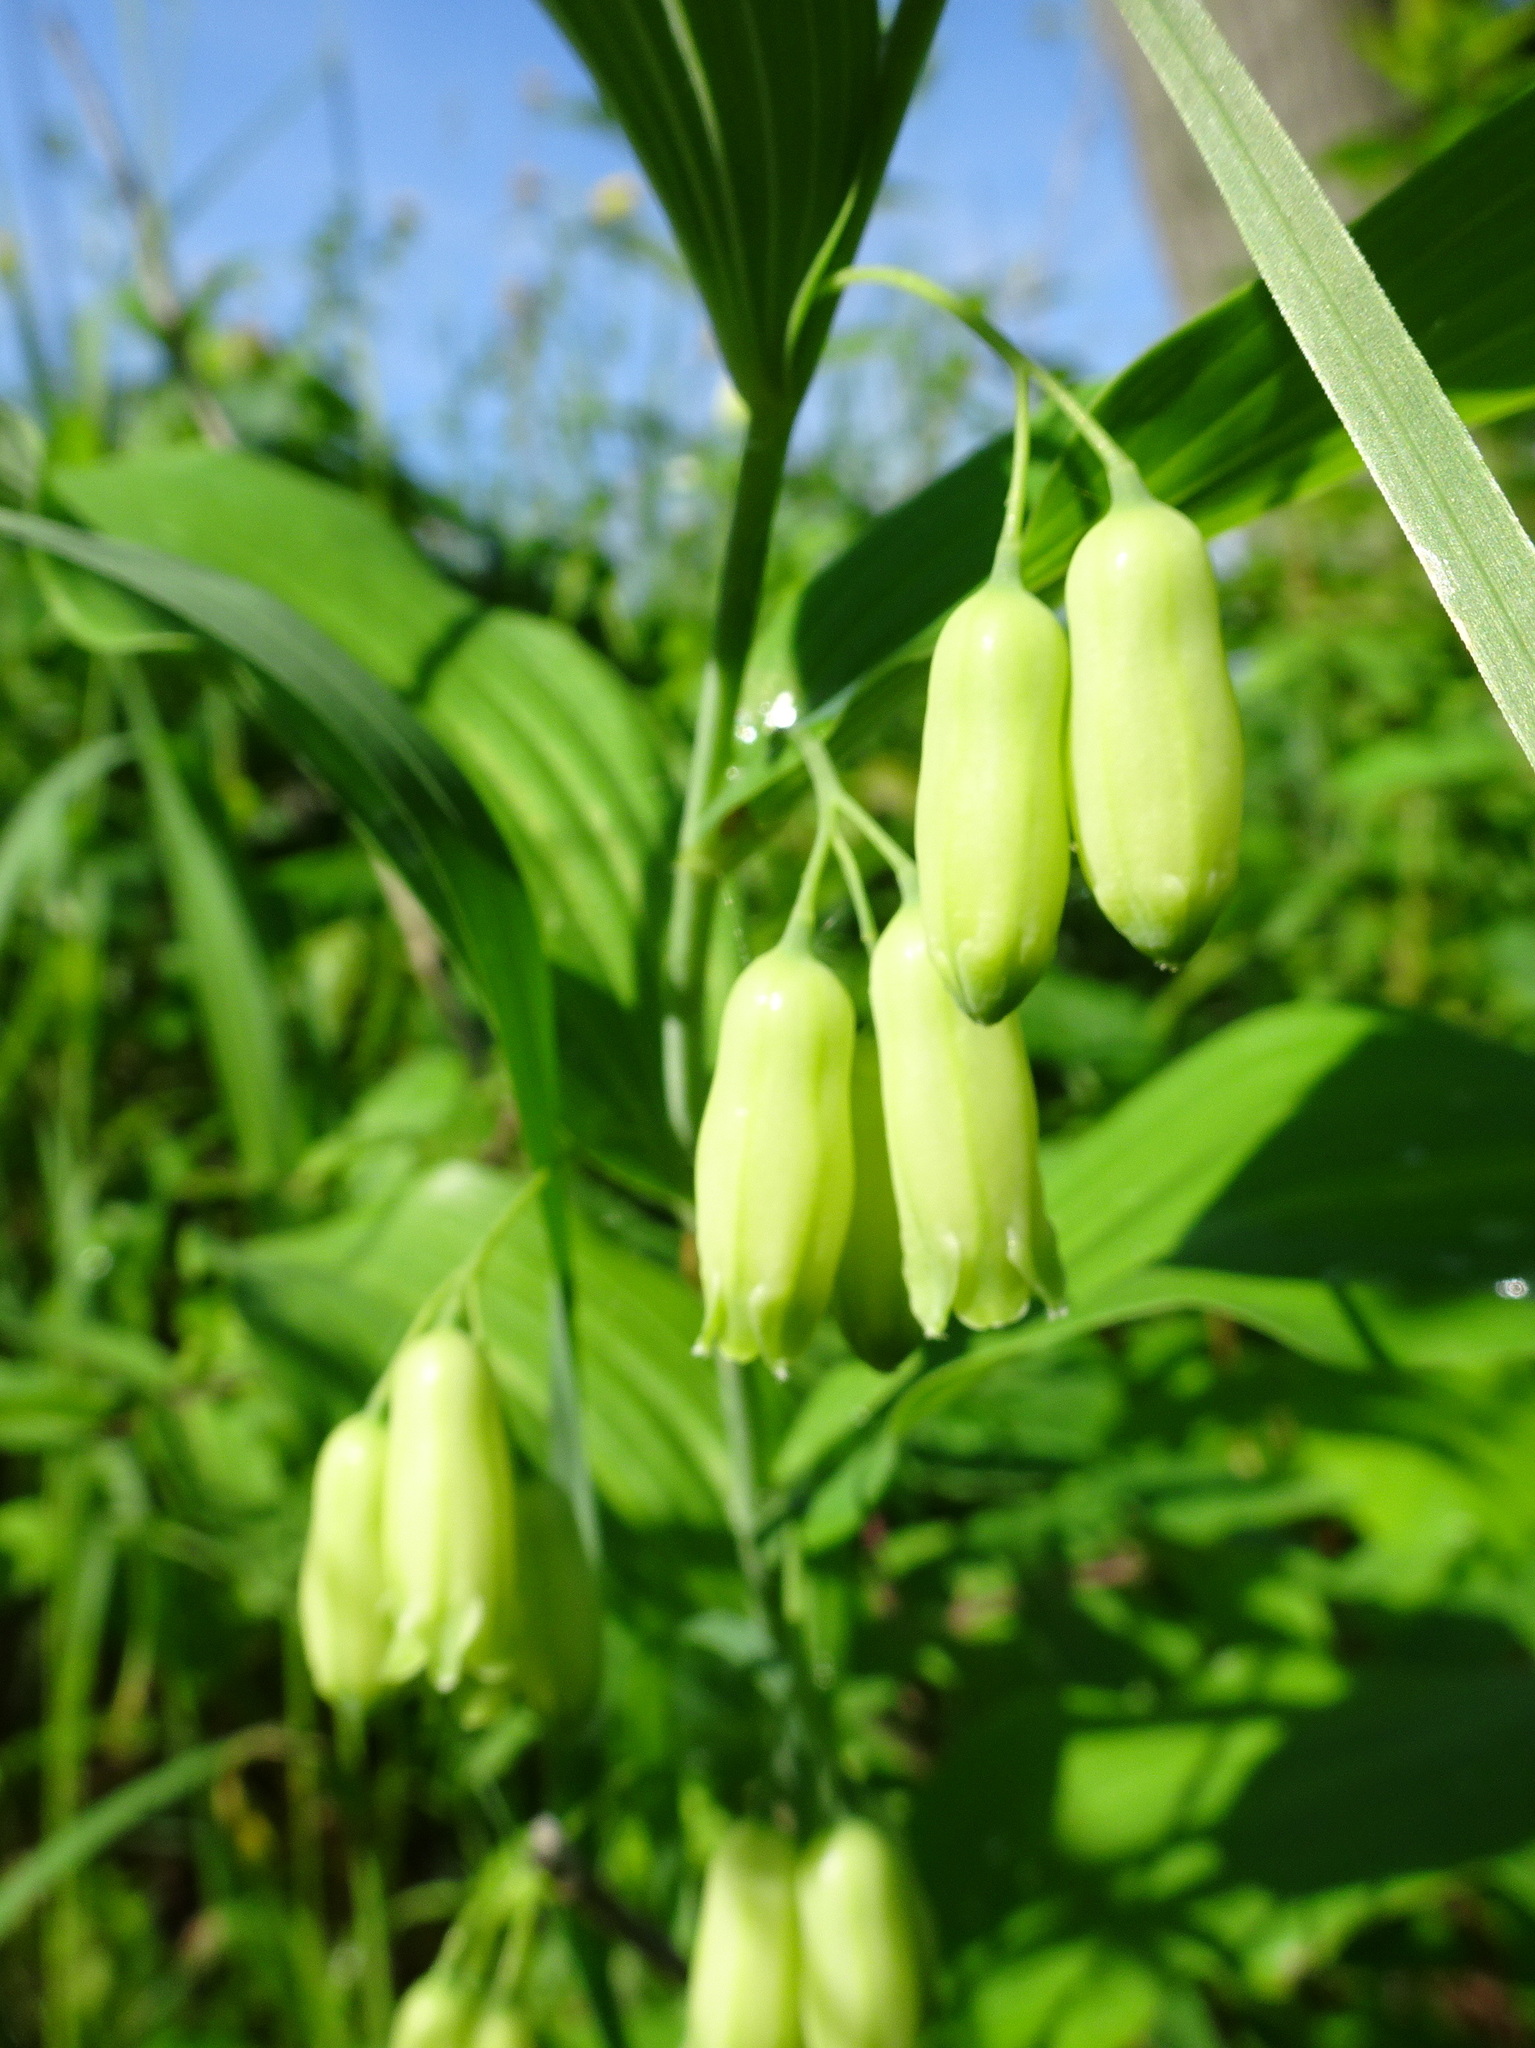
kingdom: Plantae
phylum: Tracheophyta
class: Liliopsida
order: Asparagales
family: Asparagaceae
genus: Polygonatum
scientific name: Polygonatum biflorum
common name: American solomon's-seal
